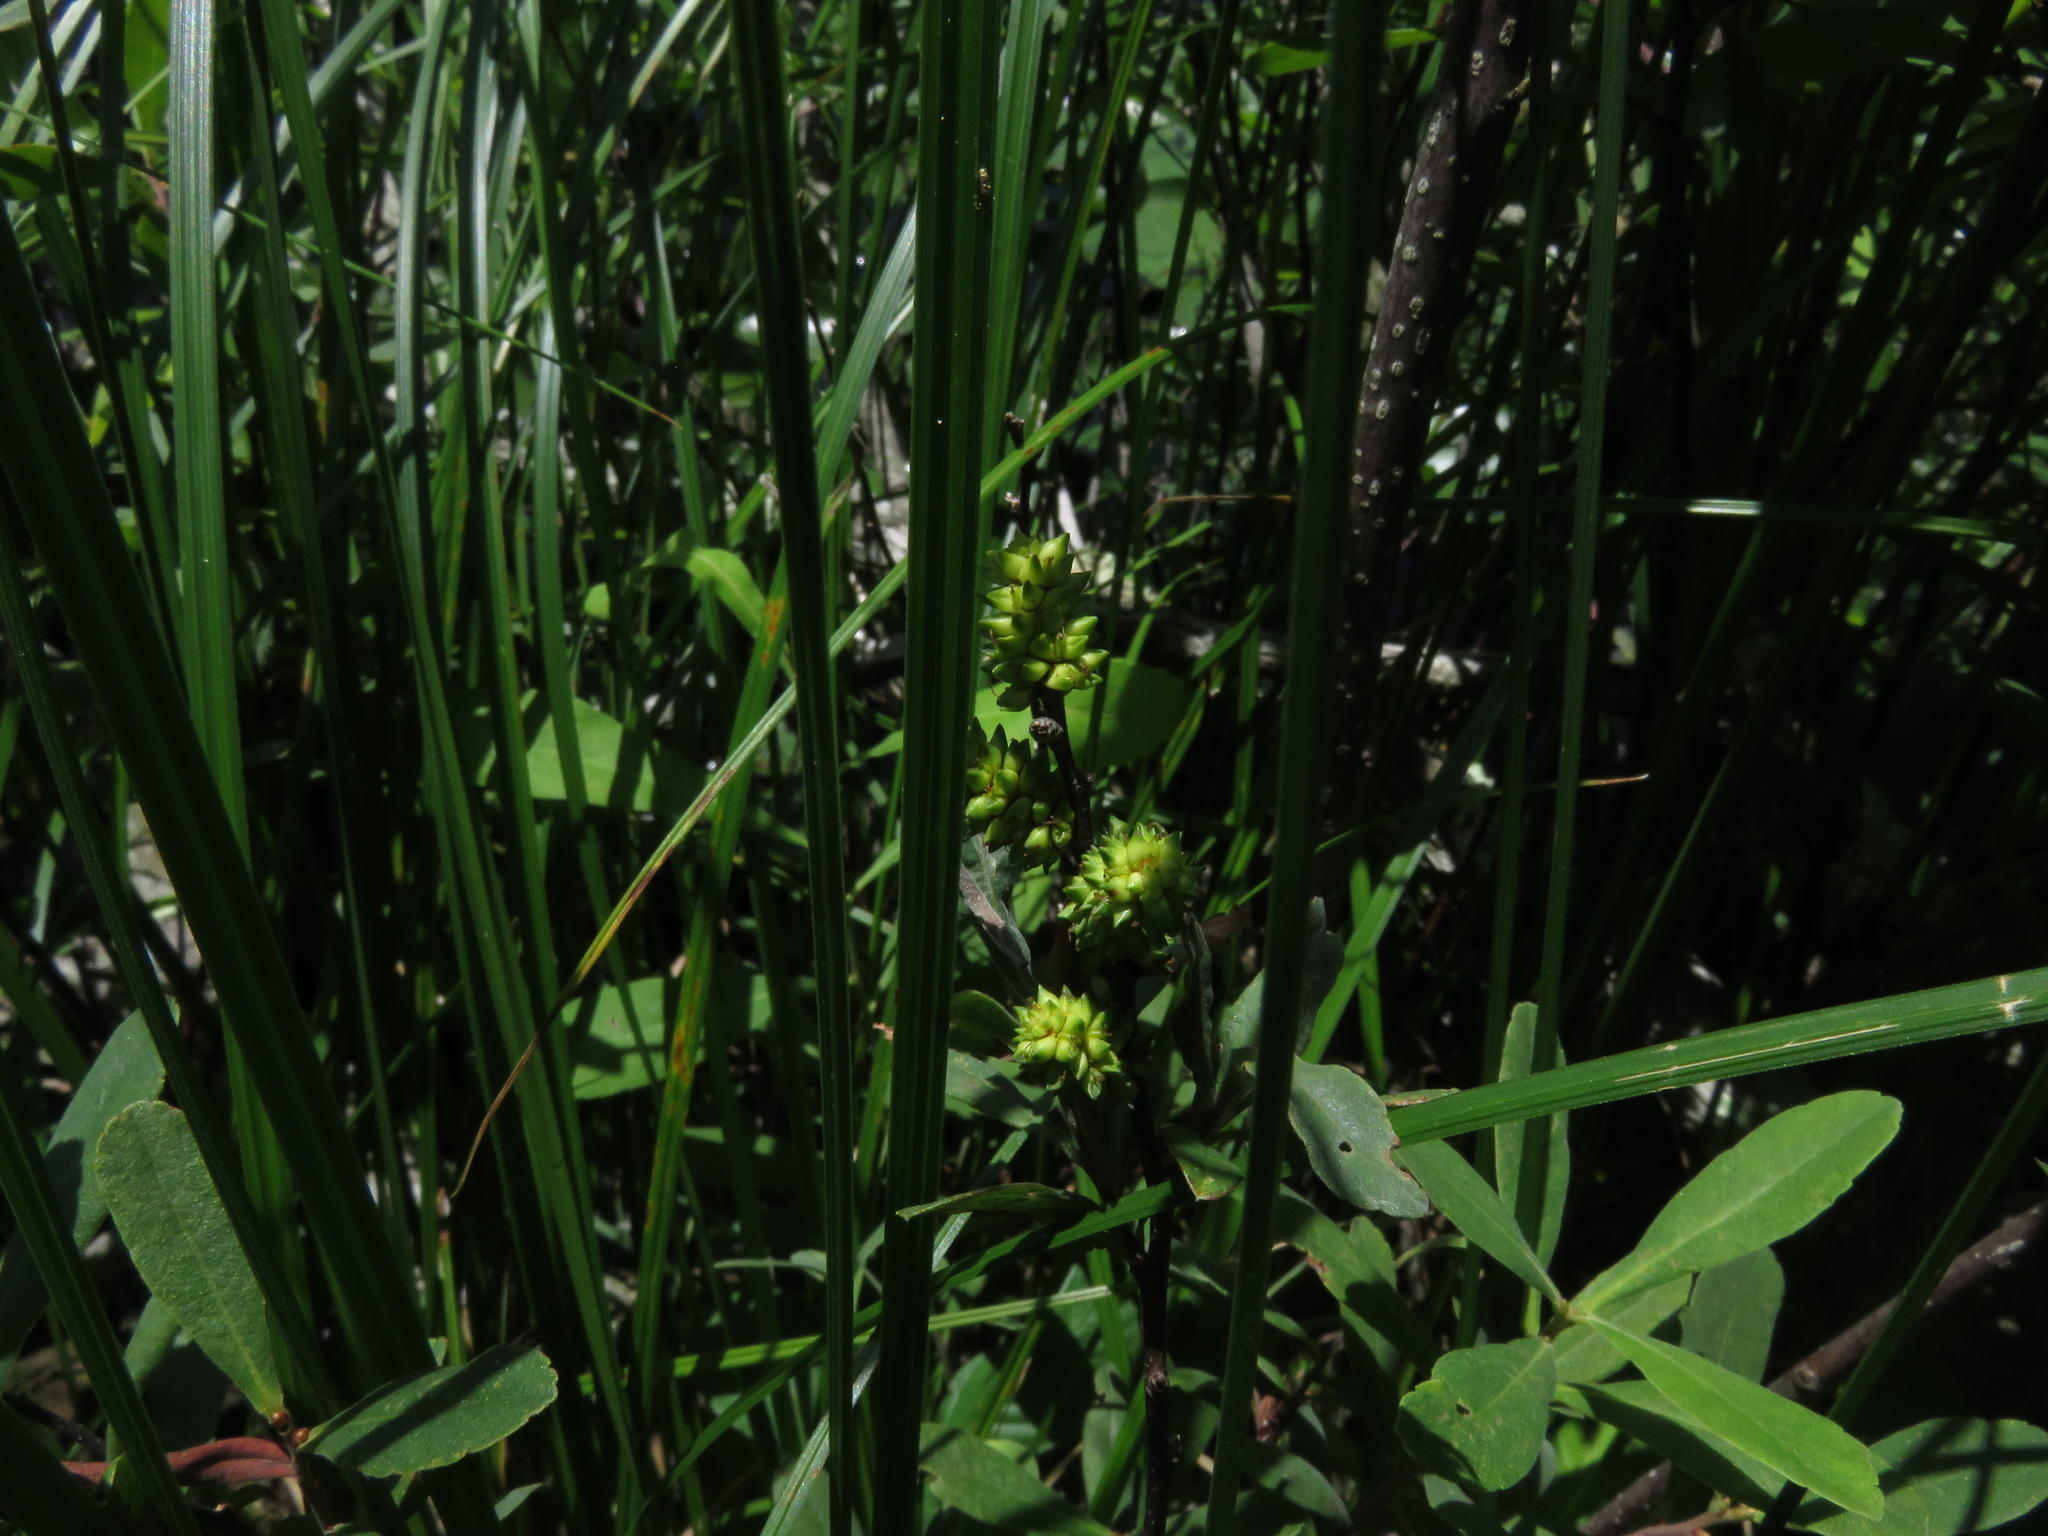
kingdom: Plantae
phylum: Tracheophyta
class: Magnoliopsida
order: Fagales
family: Myricaceae
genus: Myrica
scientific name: Myrica gale
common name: Sweet gale
